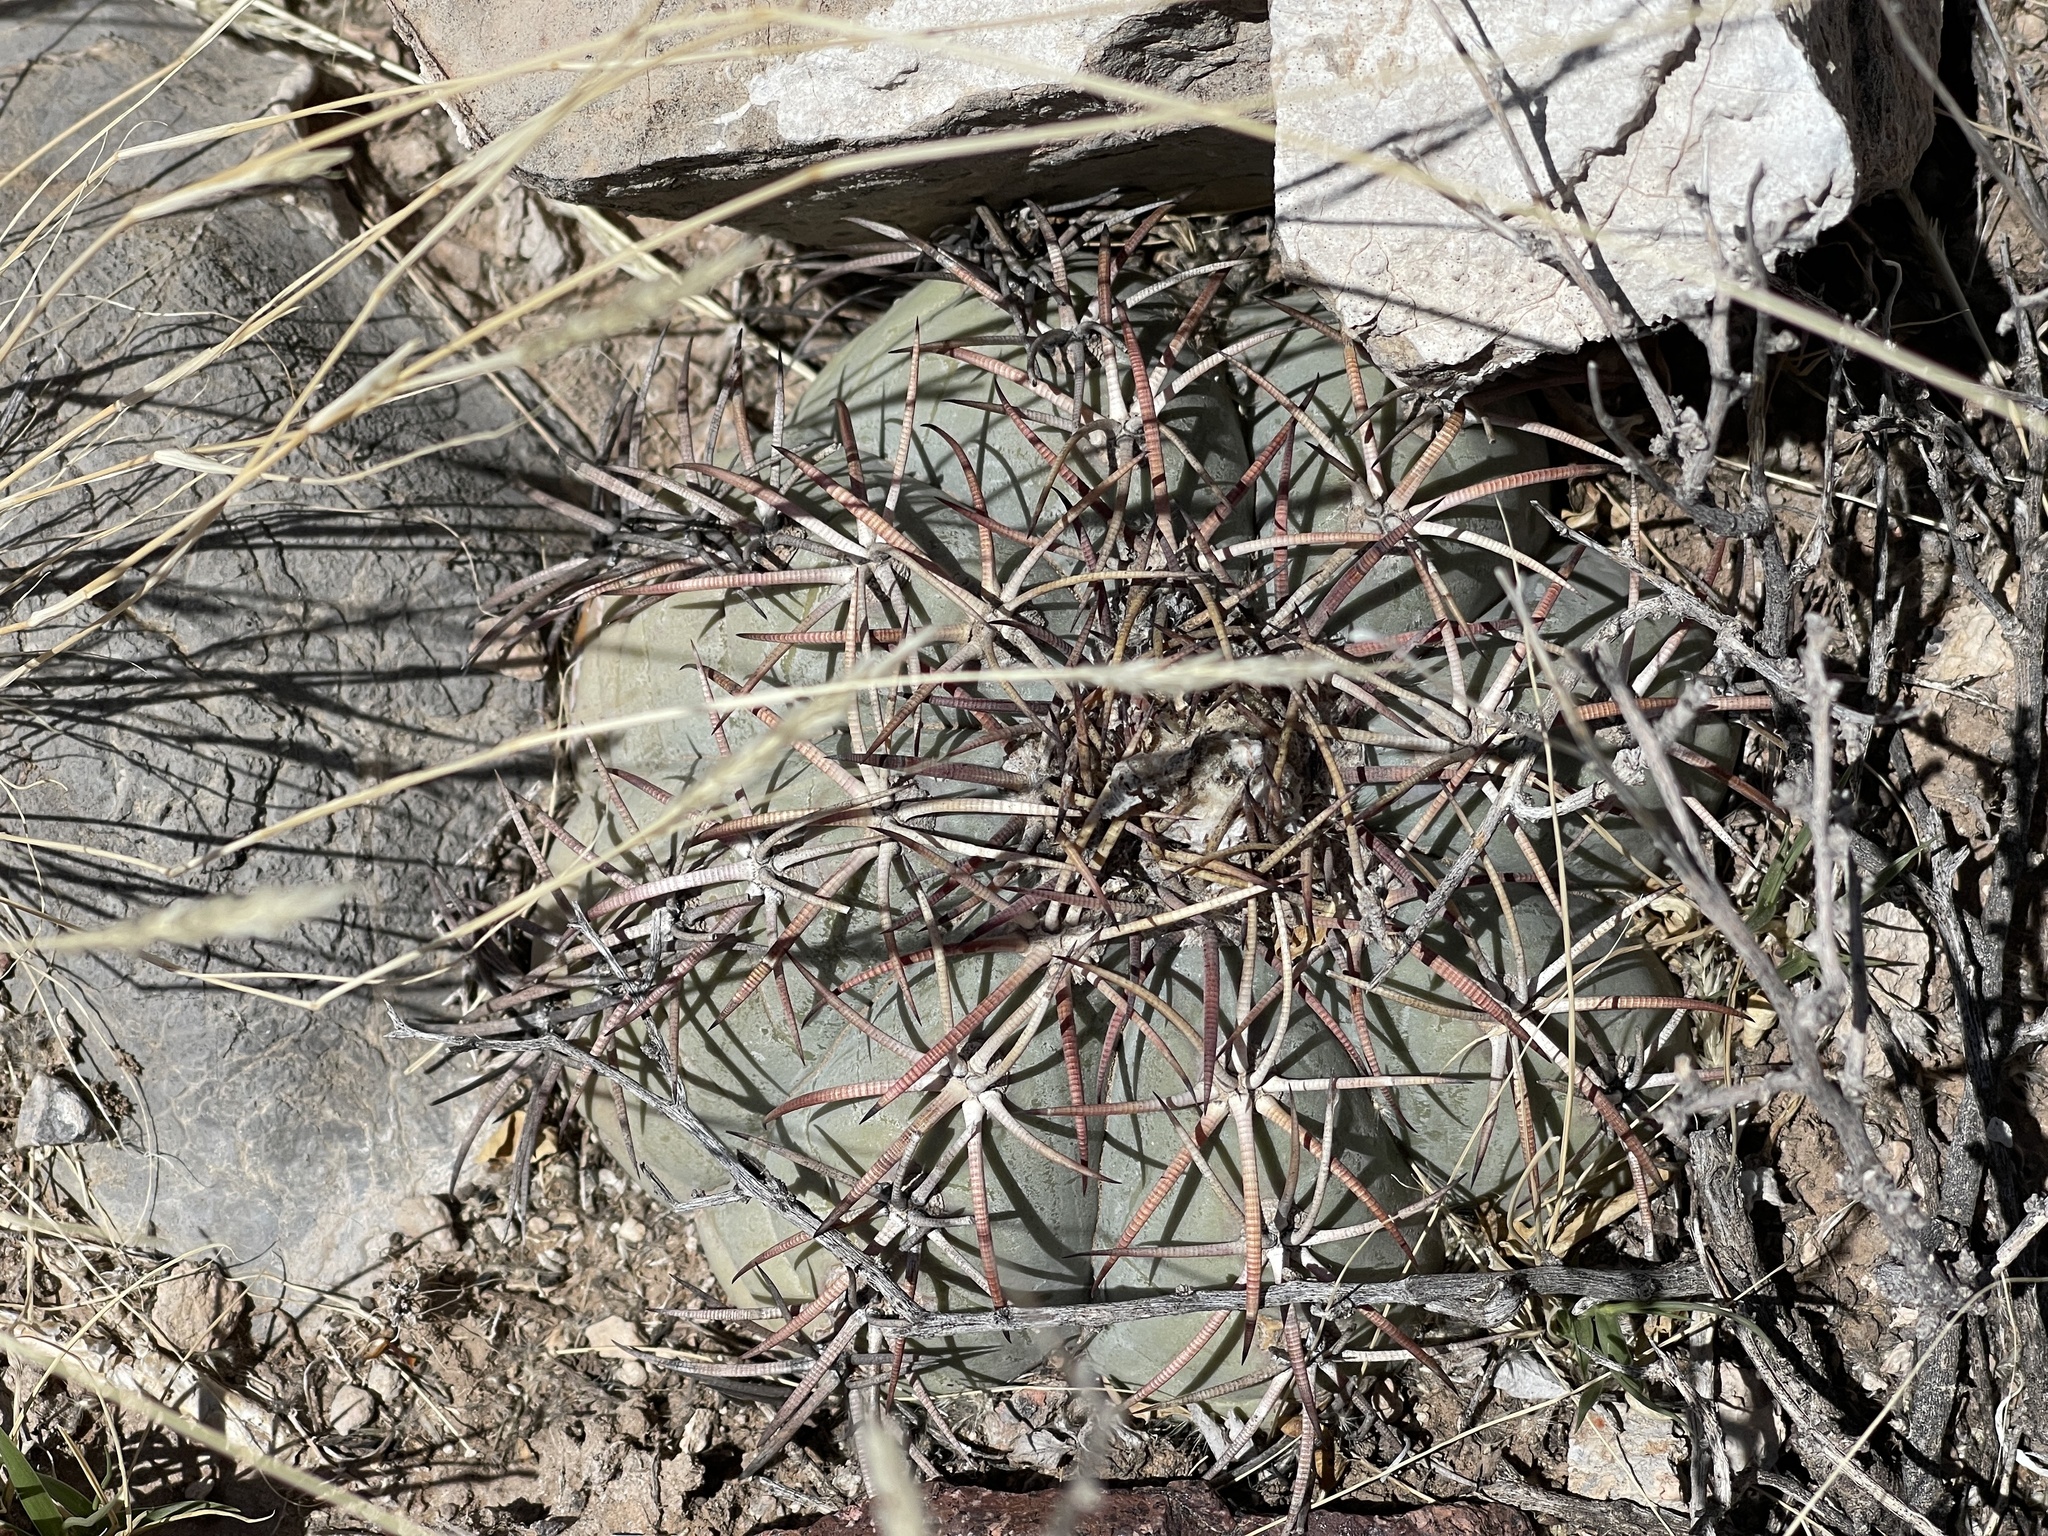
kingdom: Plantae
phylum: Tracheophyta
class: Magnoliopsida
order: Caryophyllales
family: Cactaceae
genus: Echinocactus
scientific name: Echinocactus horizonthalonius
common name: Devilshead
